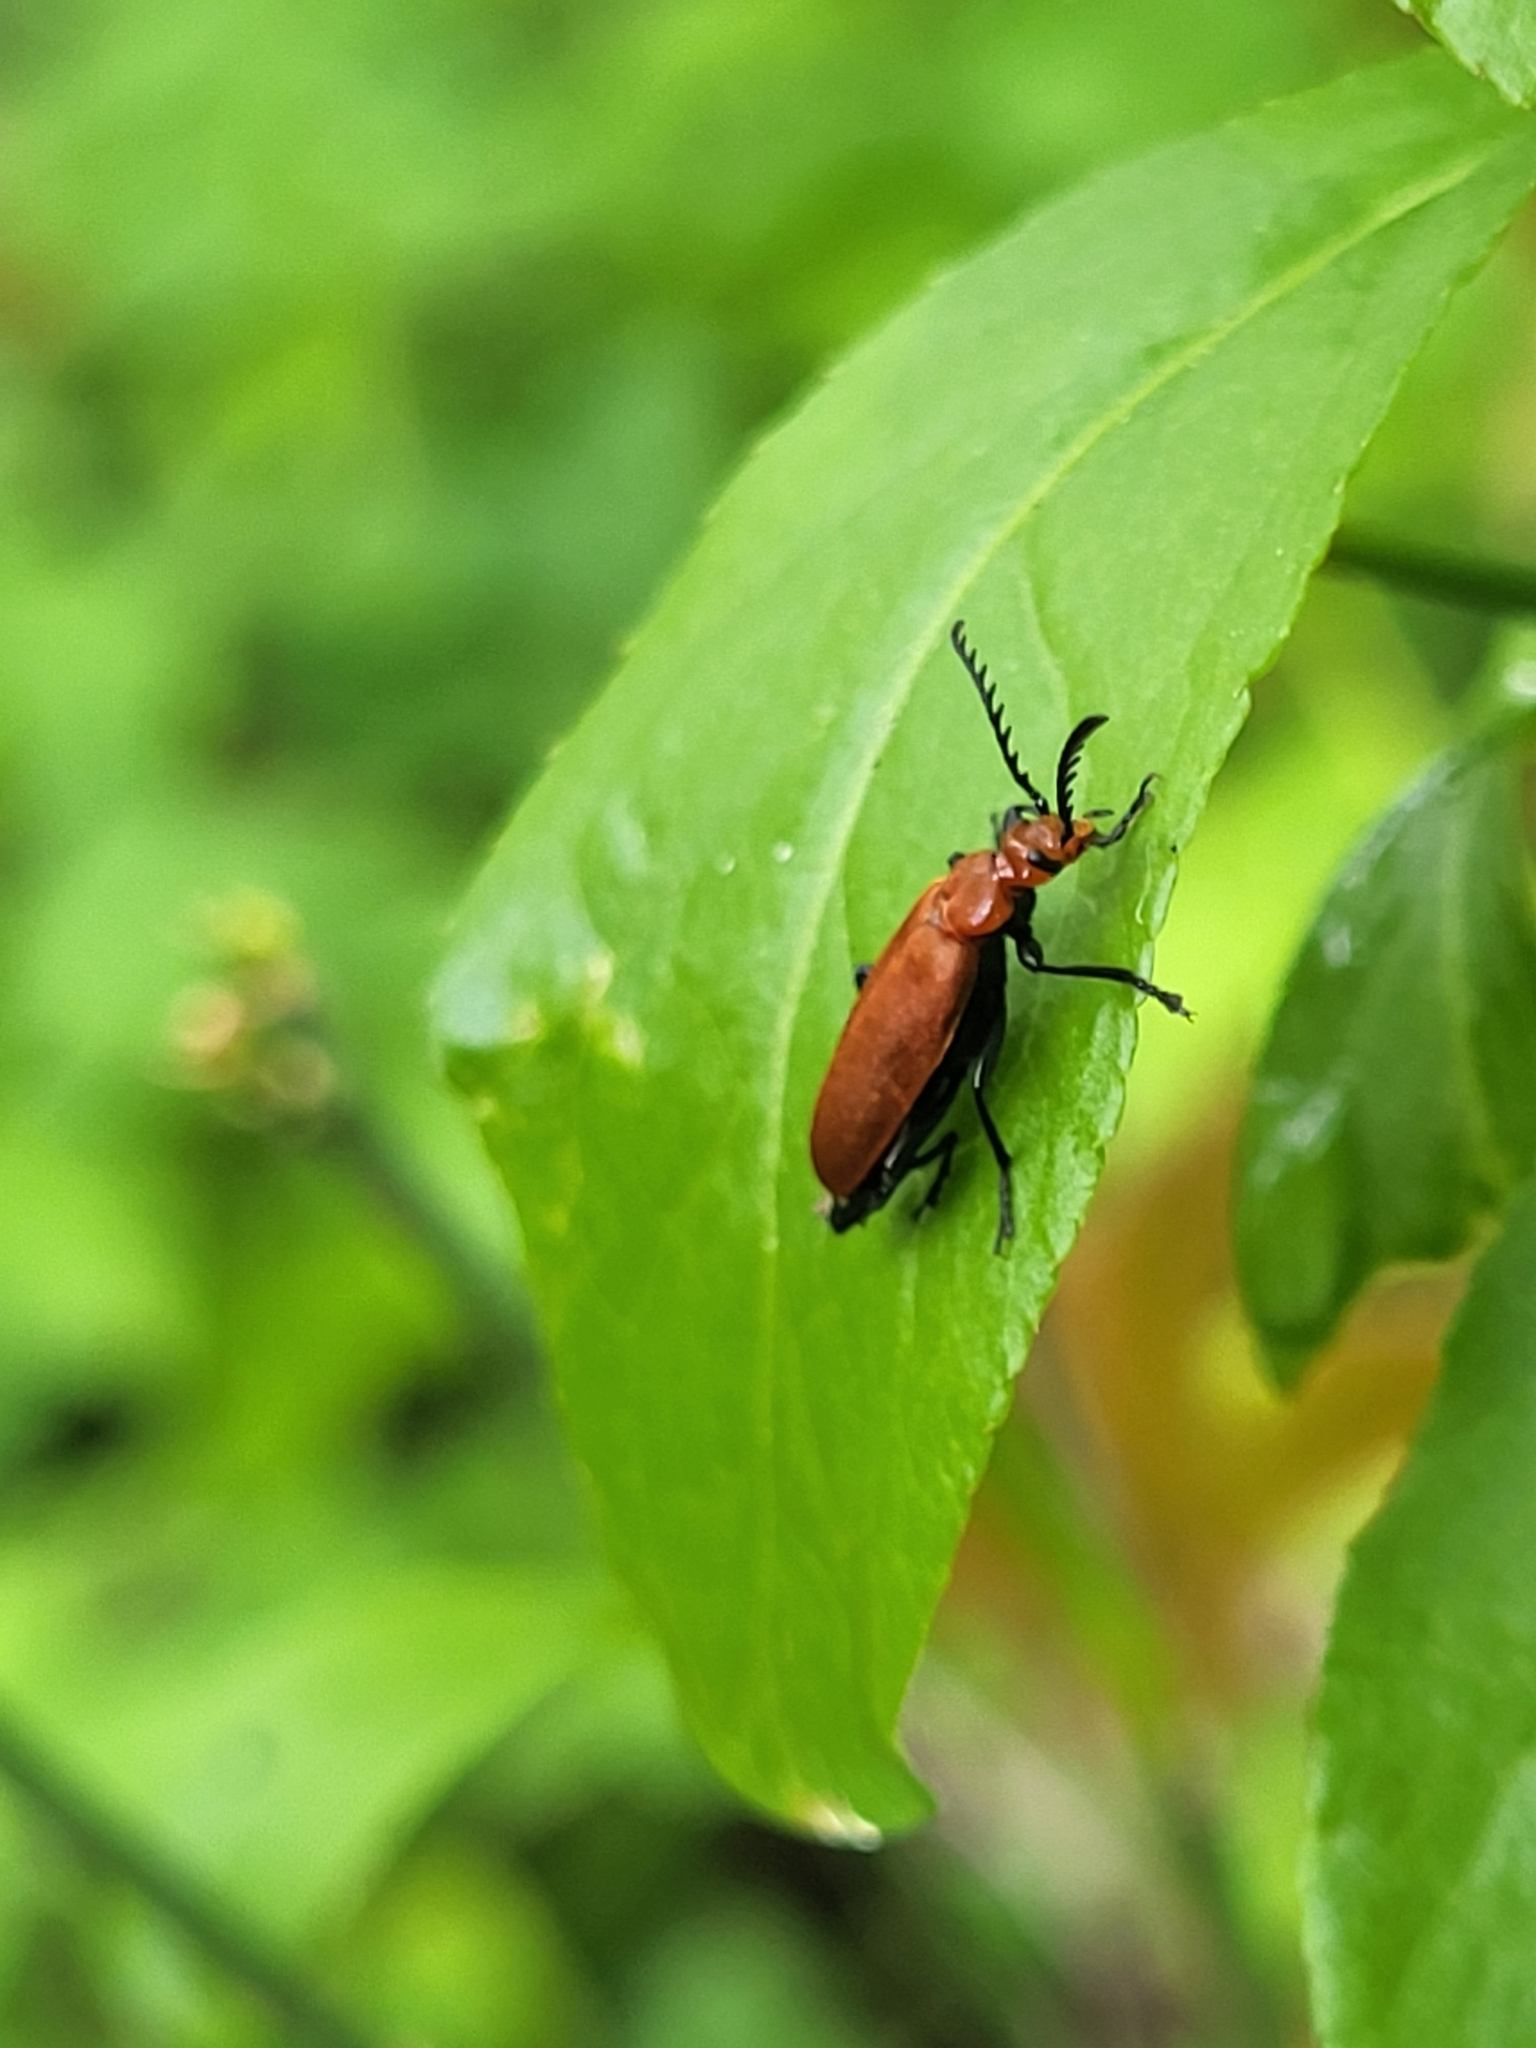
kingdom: Animalia
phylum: Arthropoda
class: Insecta
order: Coleoptera
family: Pyrochroidae
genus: Pyrochroa
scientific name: Pyrochroa serraticornis
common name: Red-headed cardinal beetle
